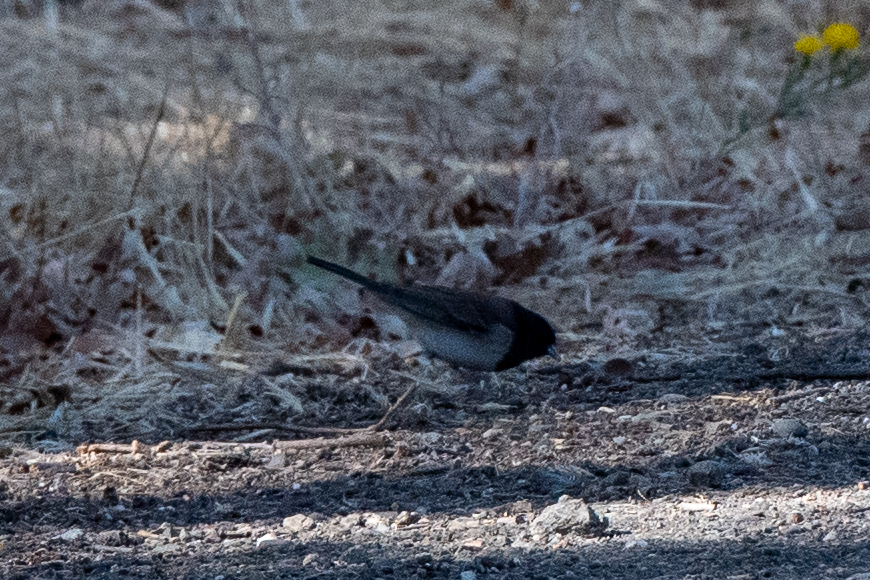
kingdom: Animalia
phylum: Chordata
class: Aves
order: Passeriformes
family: Passerellidae
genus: Junco
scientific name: Junco hyemalis
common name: Dark-eyed junco
